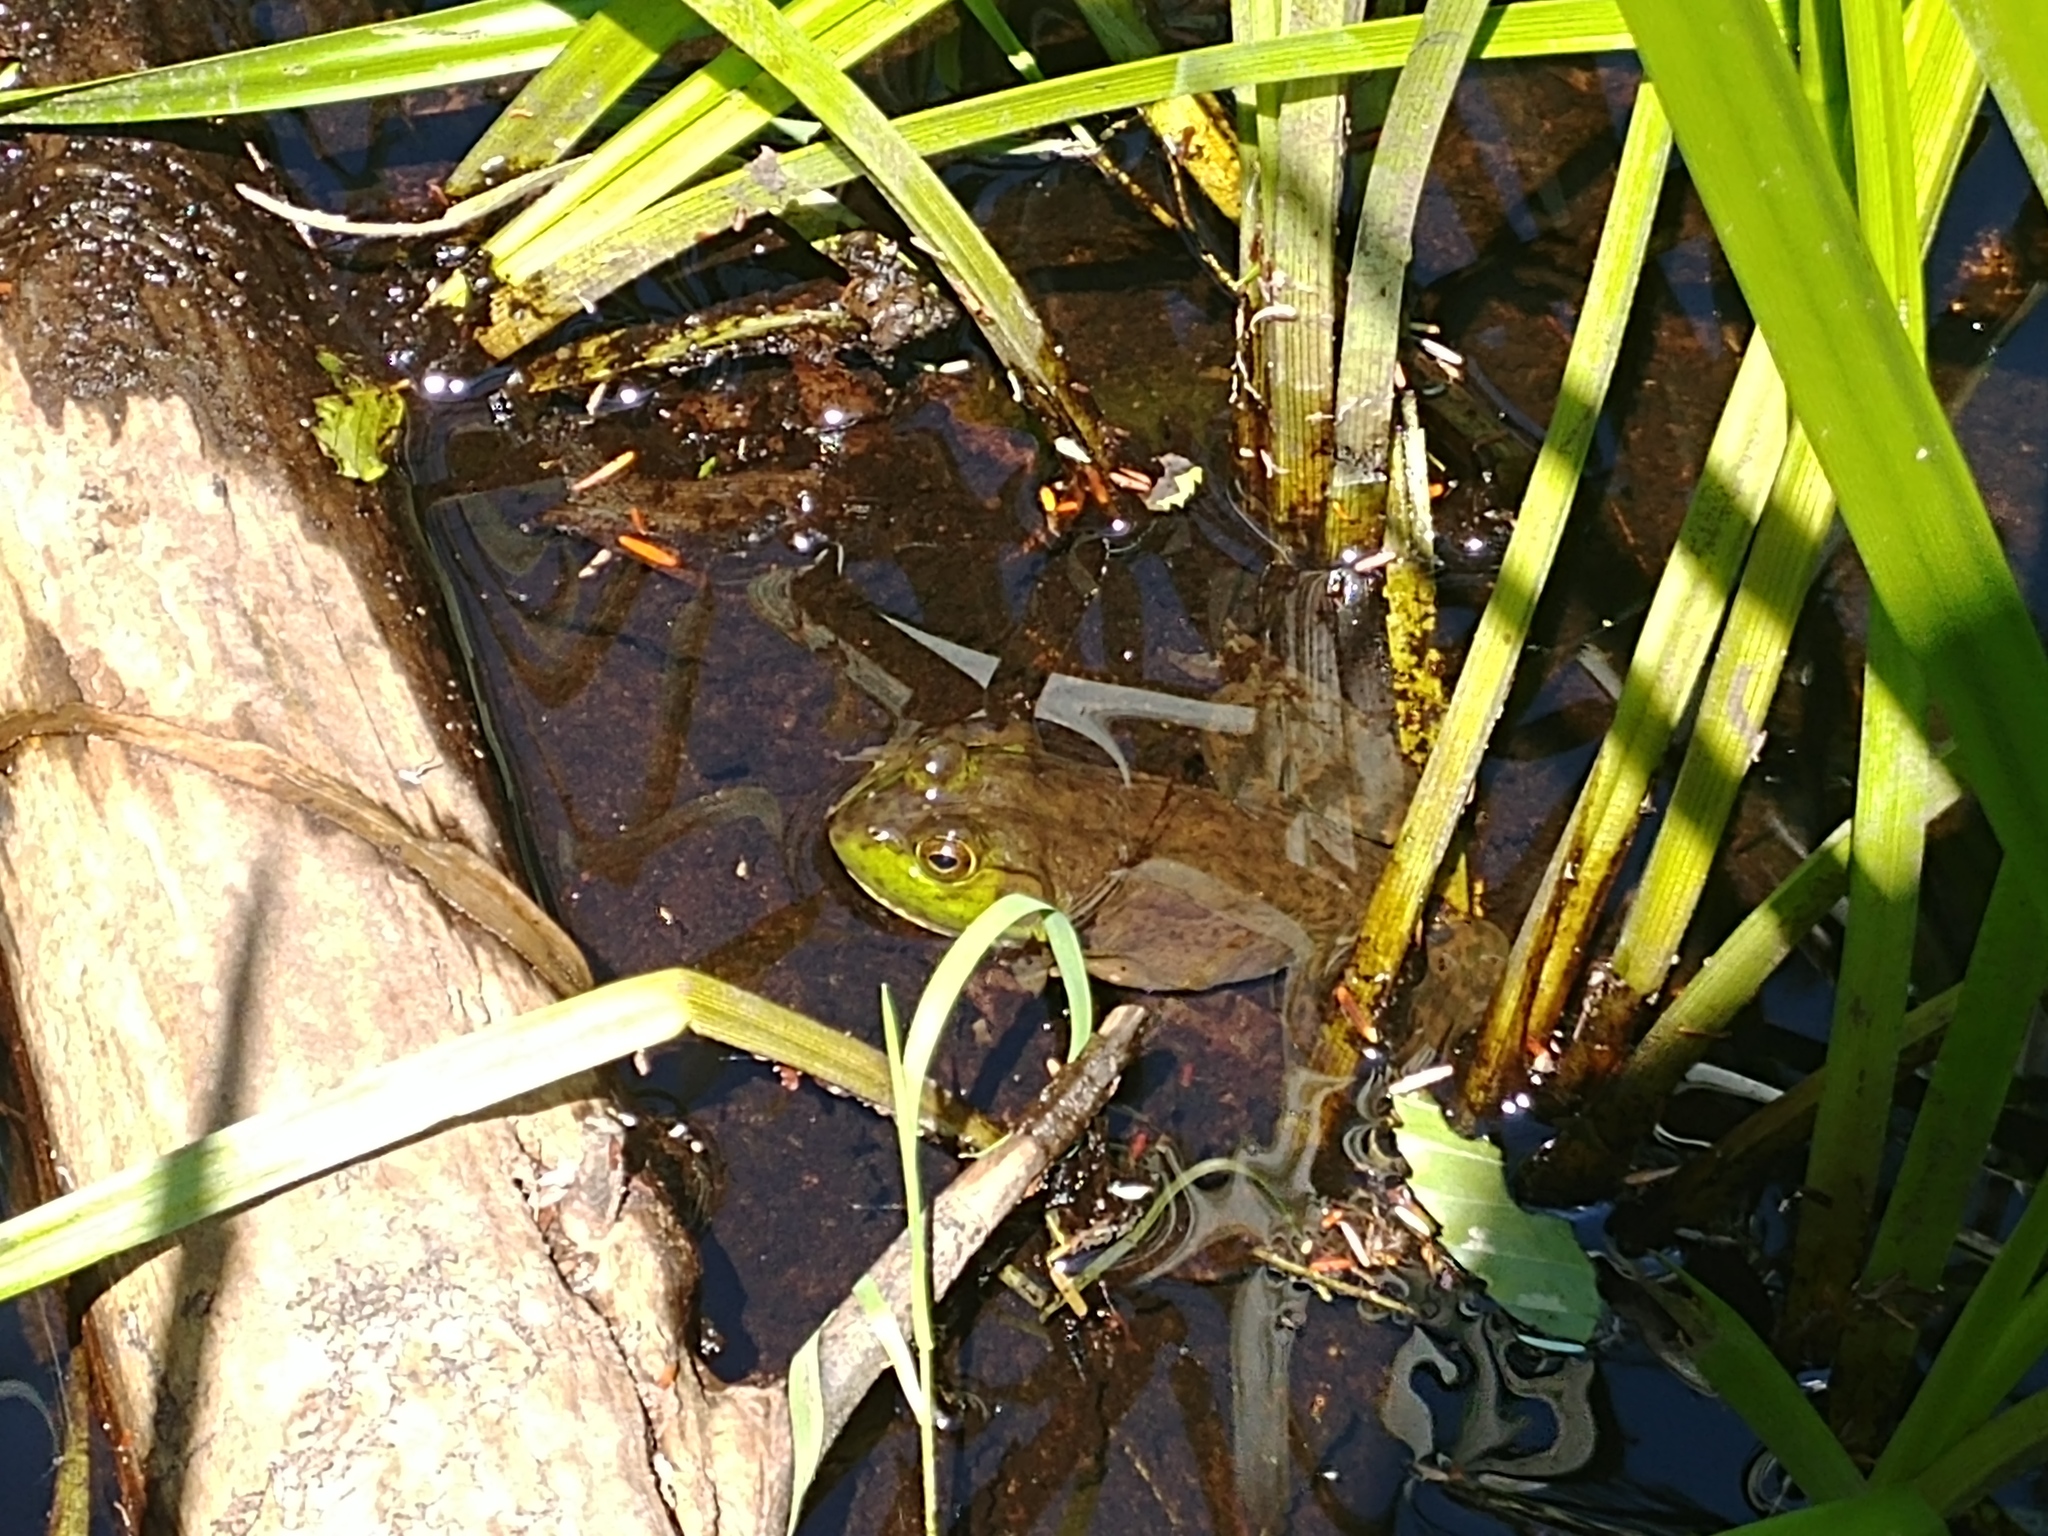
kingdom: Animalia
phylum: Chordata
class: Amphibia
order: Anura
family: Ranidae
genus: Lithobates
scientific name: Lithobates catesbeianus
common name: American bullfrog
